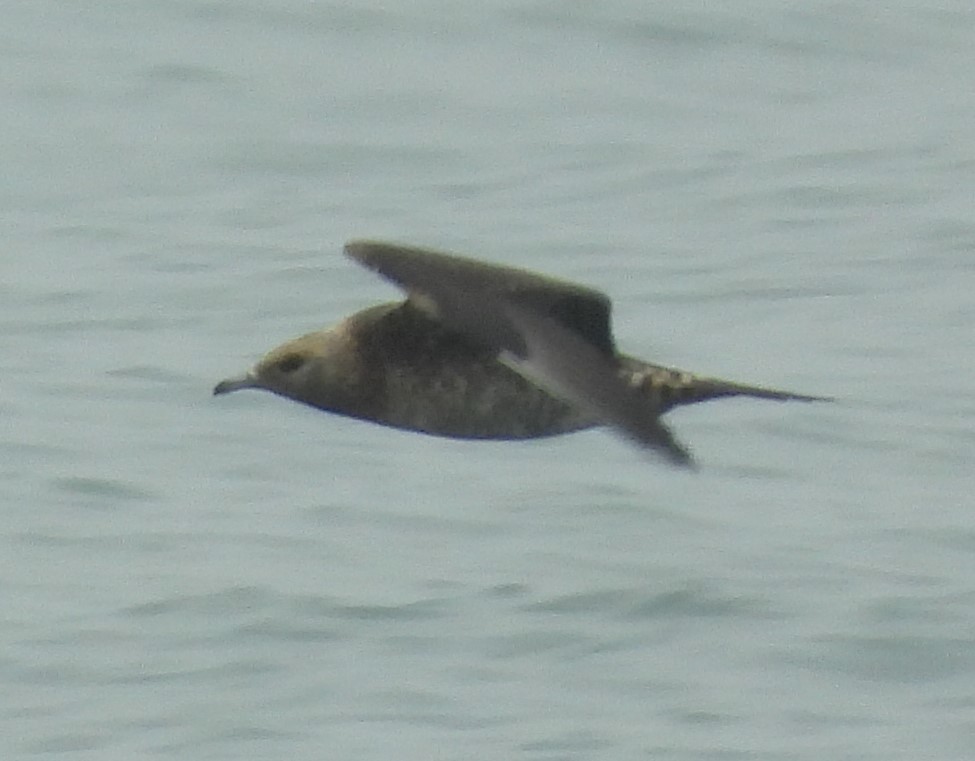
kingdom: Animalia
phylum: Chordata
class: Aves
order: Charadriiformes
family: Stercorariidae
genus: Stercorarius
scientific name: Stercorarius parasiticus
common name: Parasitic jaeger
